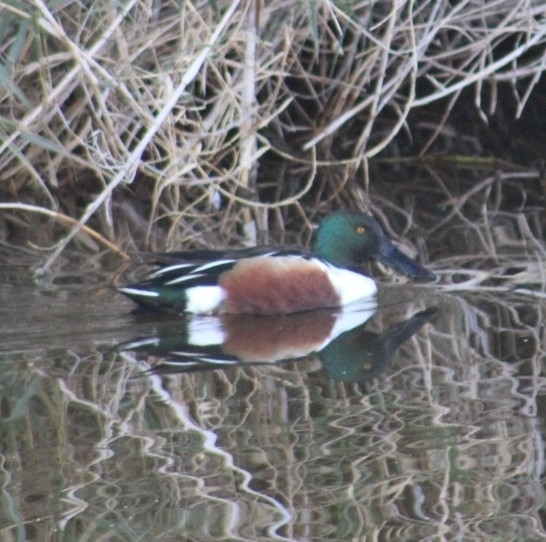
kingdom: Animalia
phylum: Chordata
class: Aves
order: Anseriformes
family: Anatidae
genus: Spatula
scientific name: Spatula clypeata
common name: Northern shoveler
